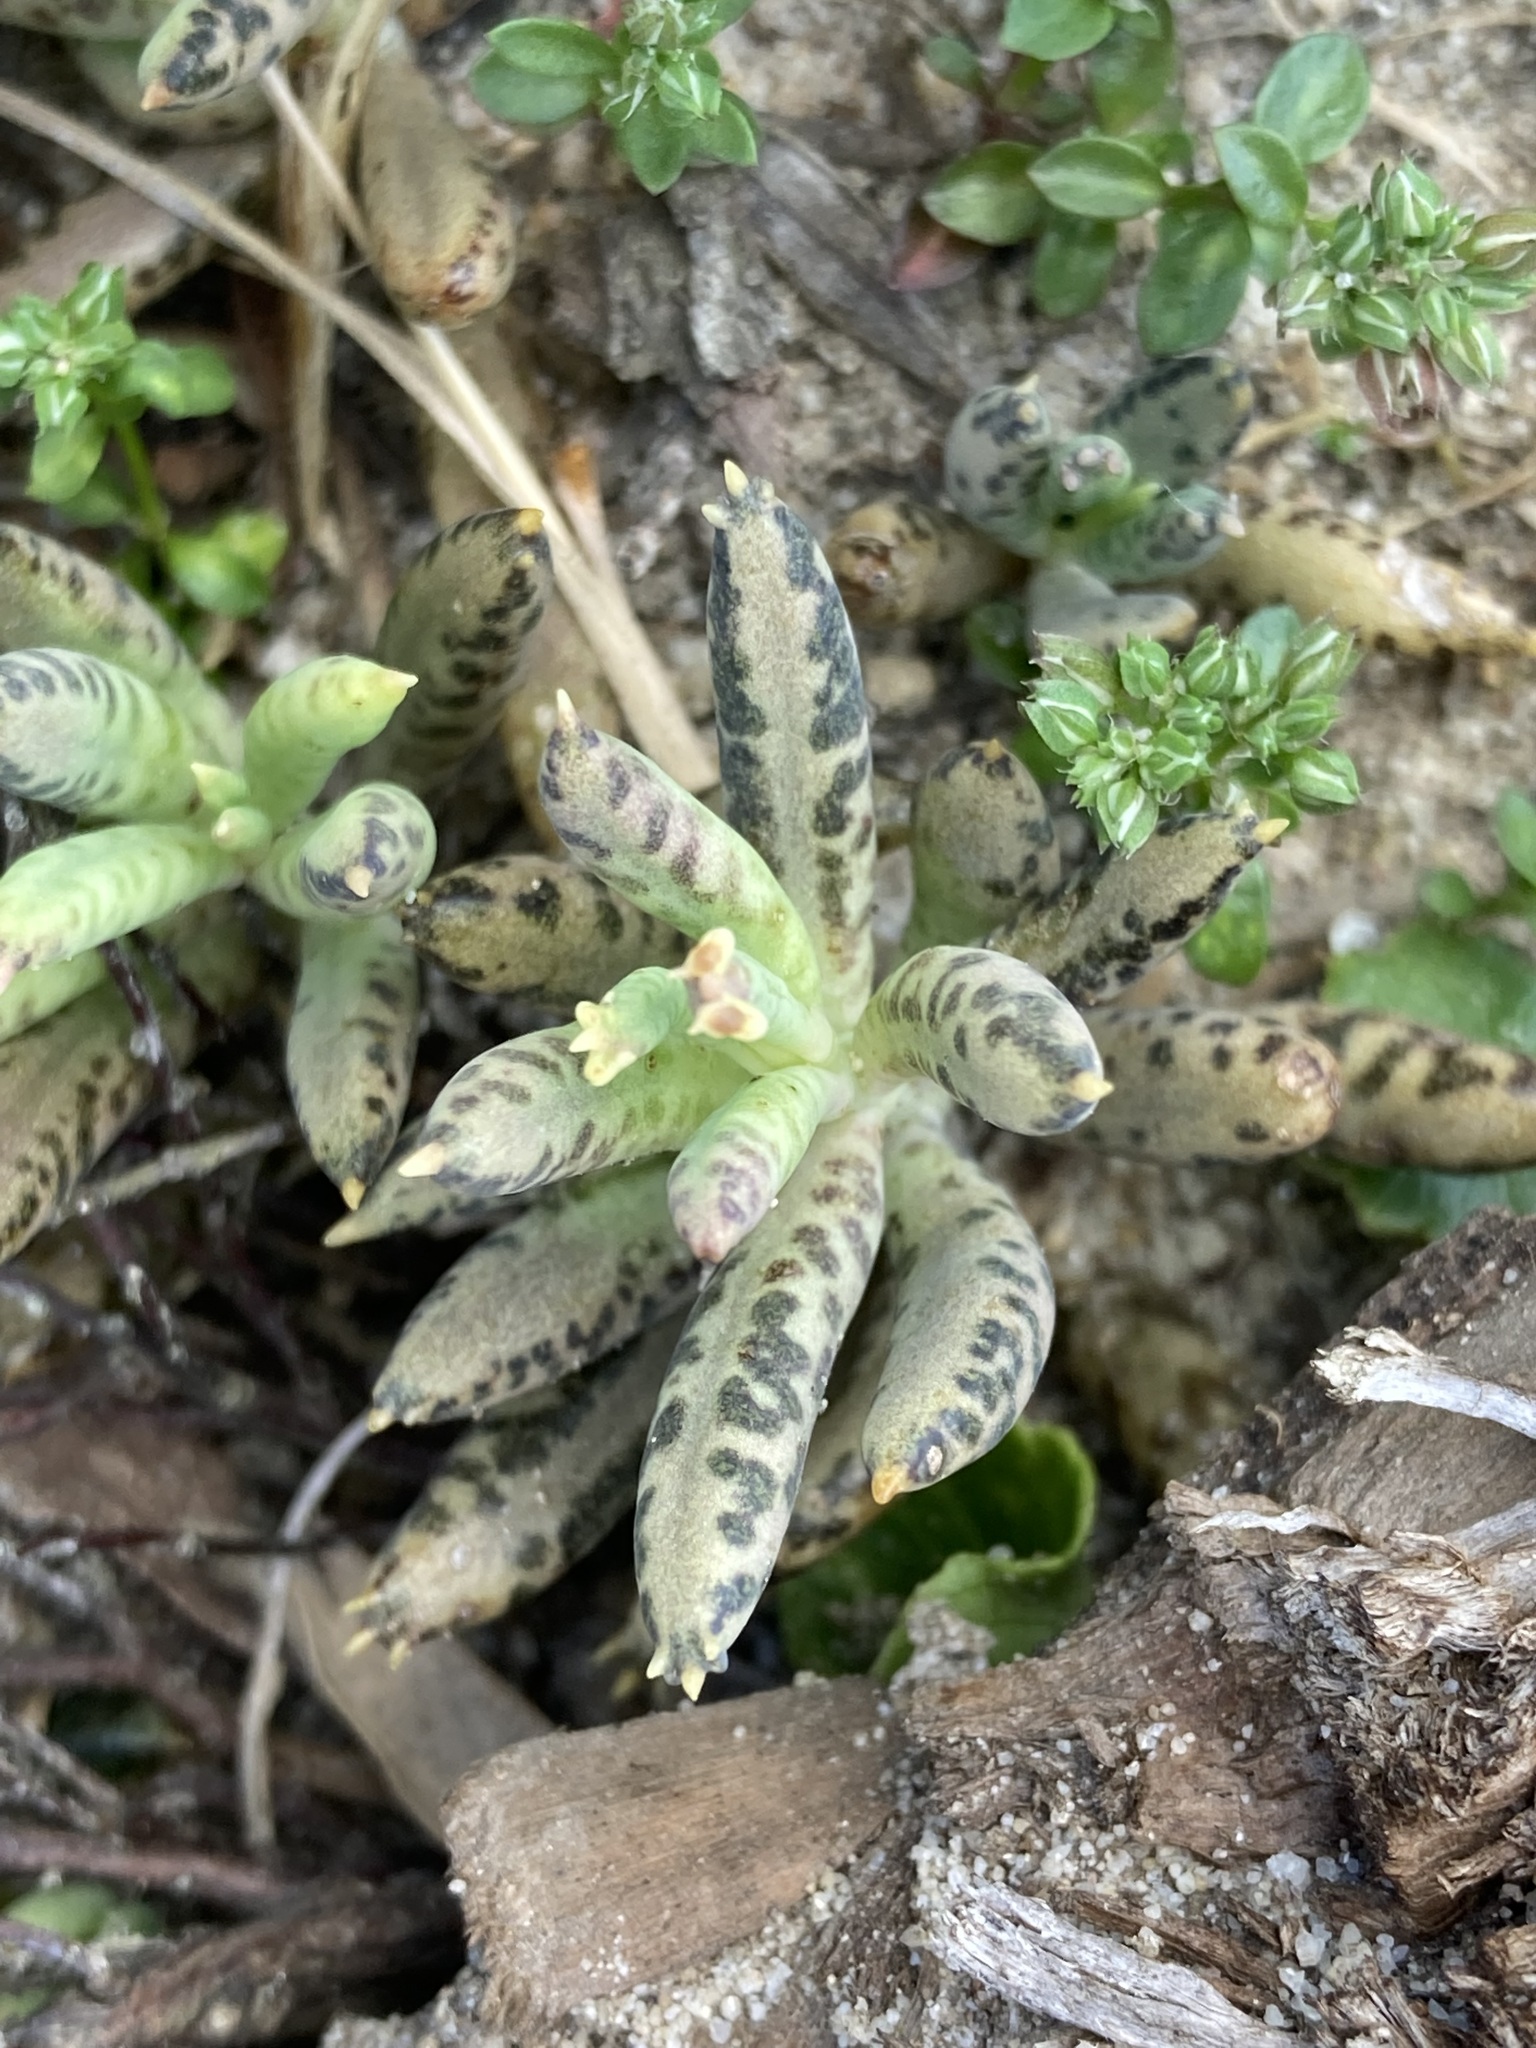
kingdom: Plantae
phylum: Tracheophyta
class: Magnoliopsida
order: Saxifragales
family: Crassulaceae
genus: Kalanchoe
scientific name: Kalanchoe delagoensis
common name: Chandelier plant
